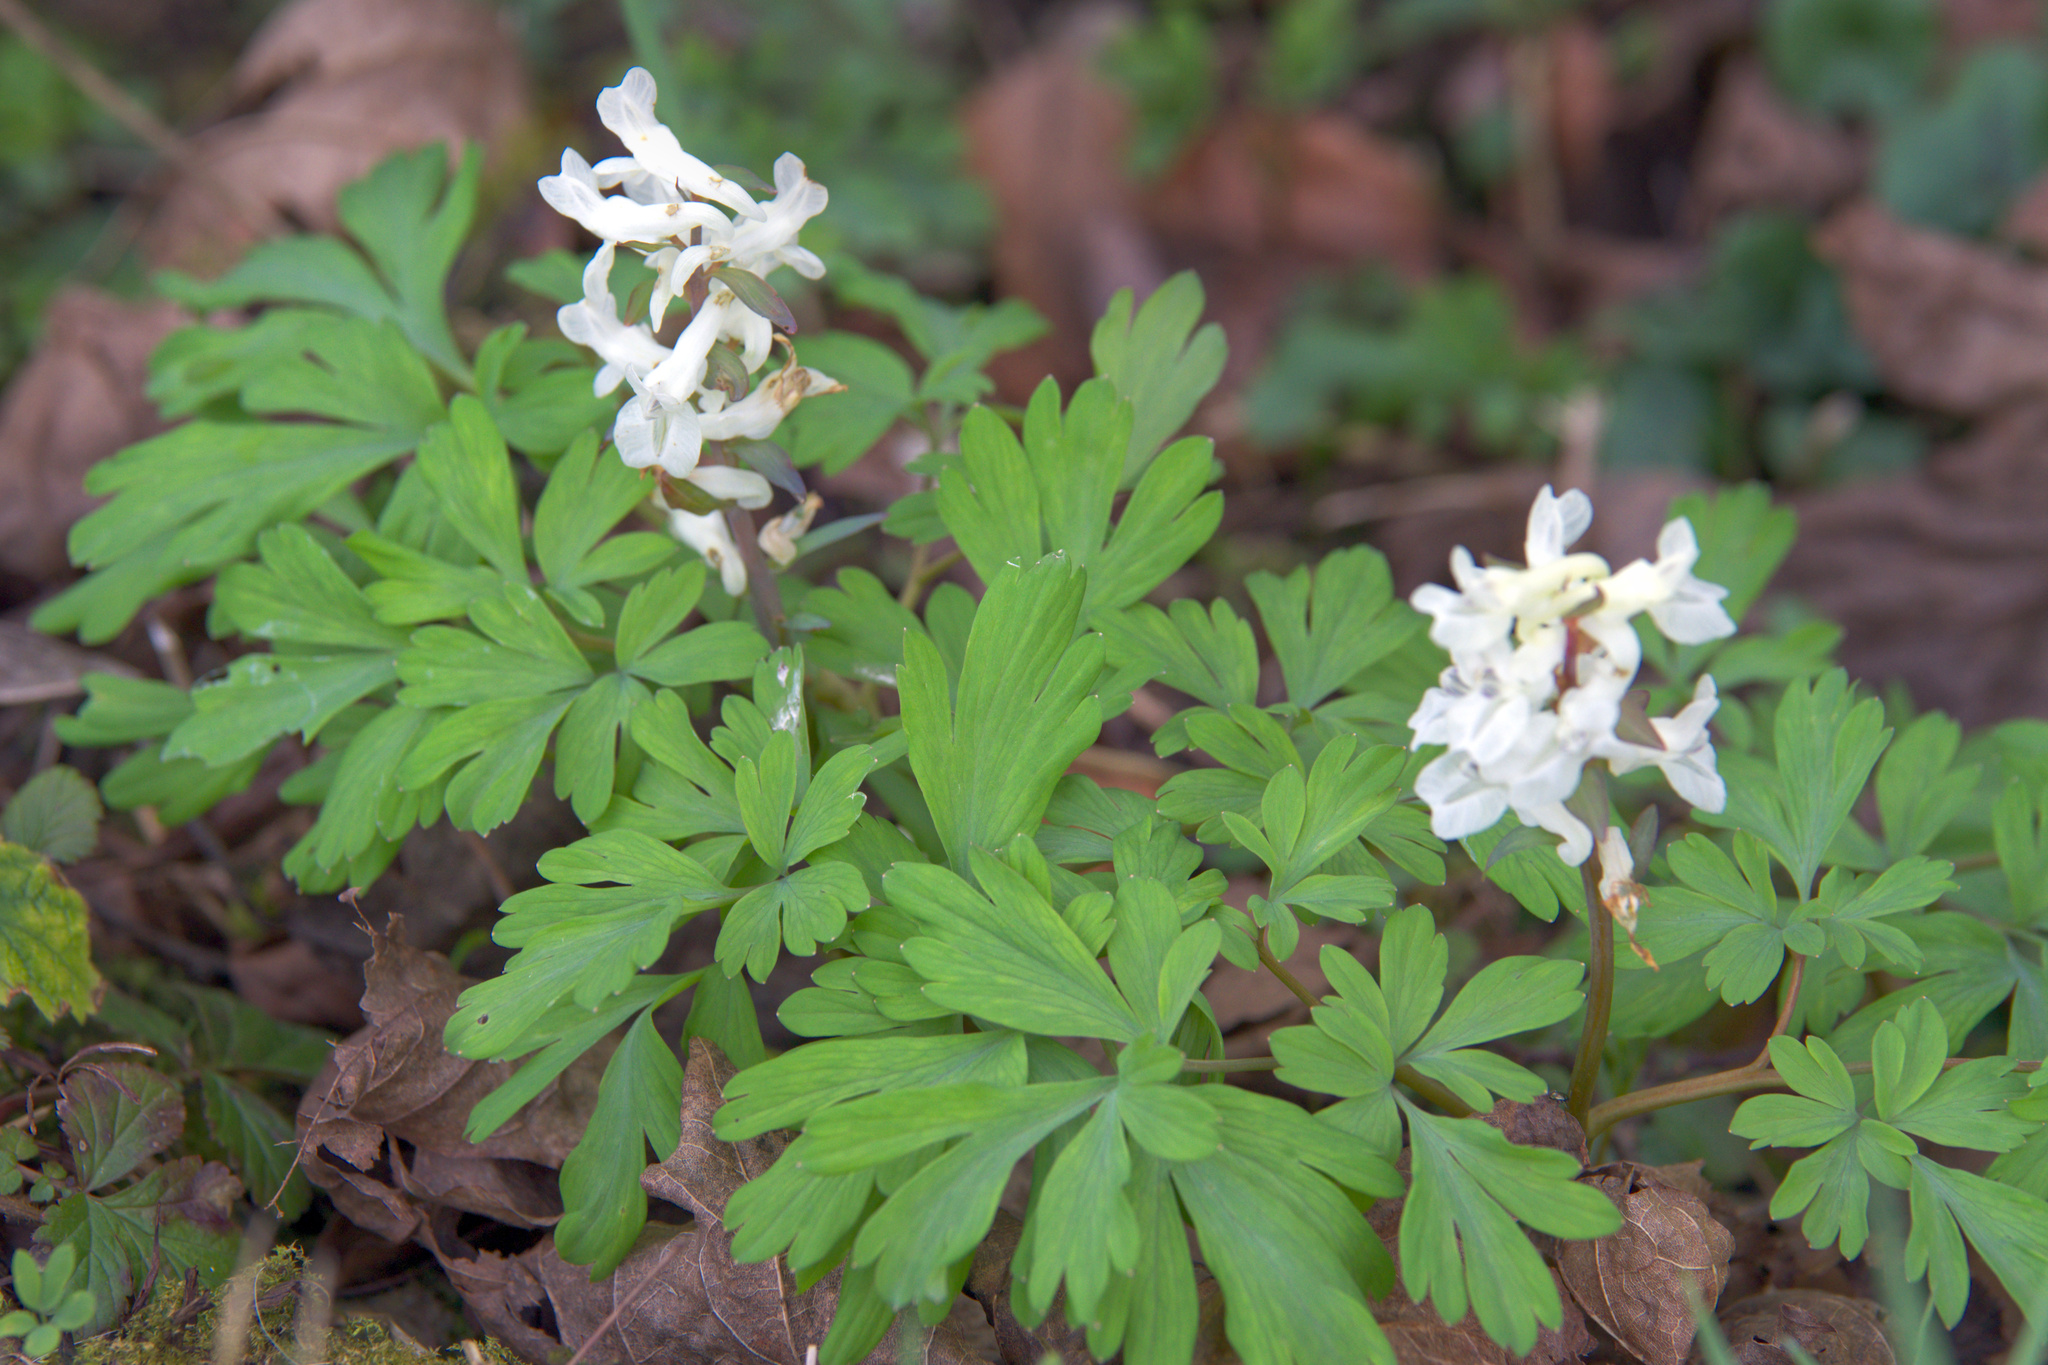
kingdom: Plantae
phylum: Tracheophyta
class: Magnoliopsida
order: Ranunculales
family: Papaveraceae
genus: Corydalis
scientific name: Corydalis cava
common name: Hollowroot
